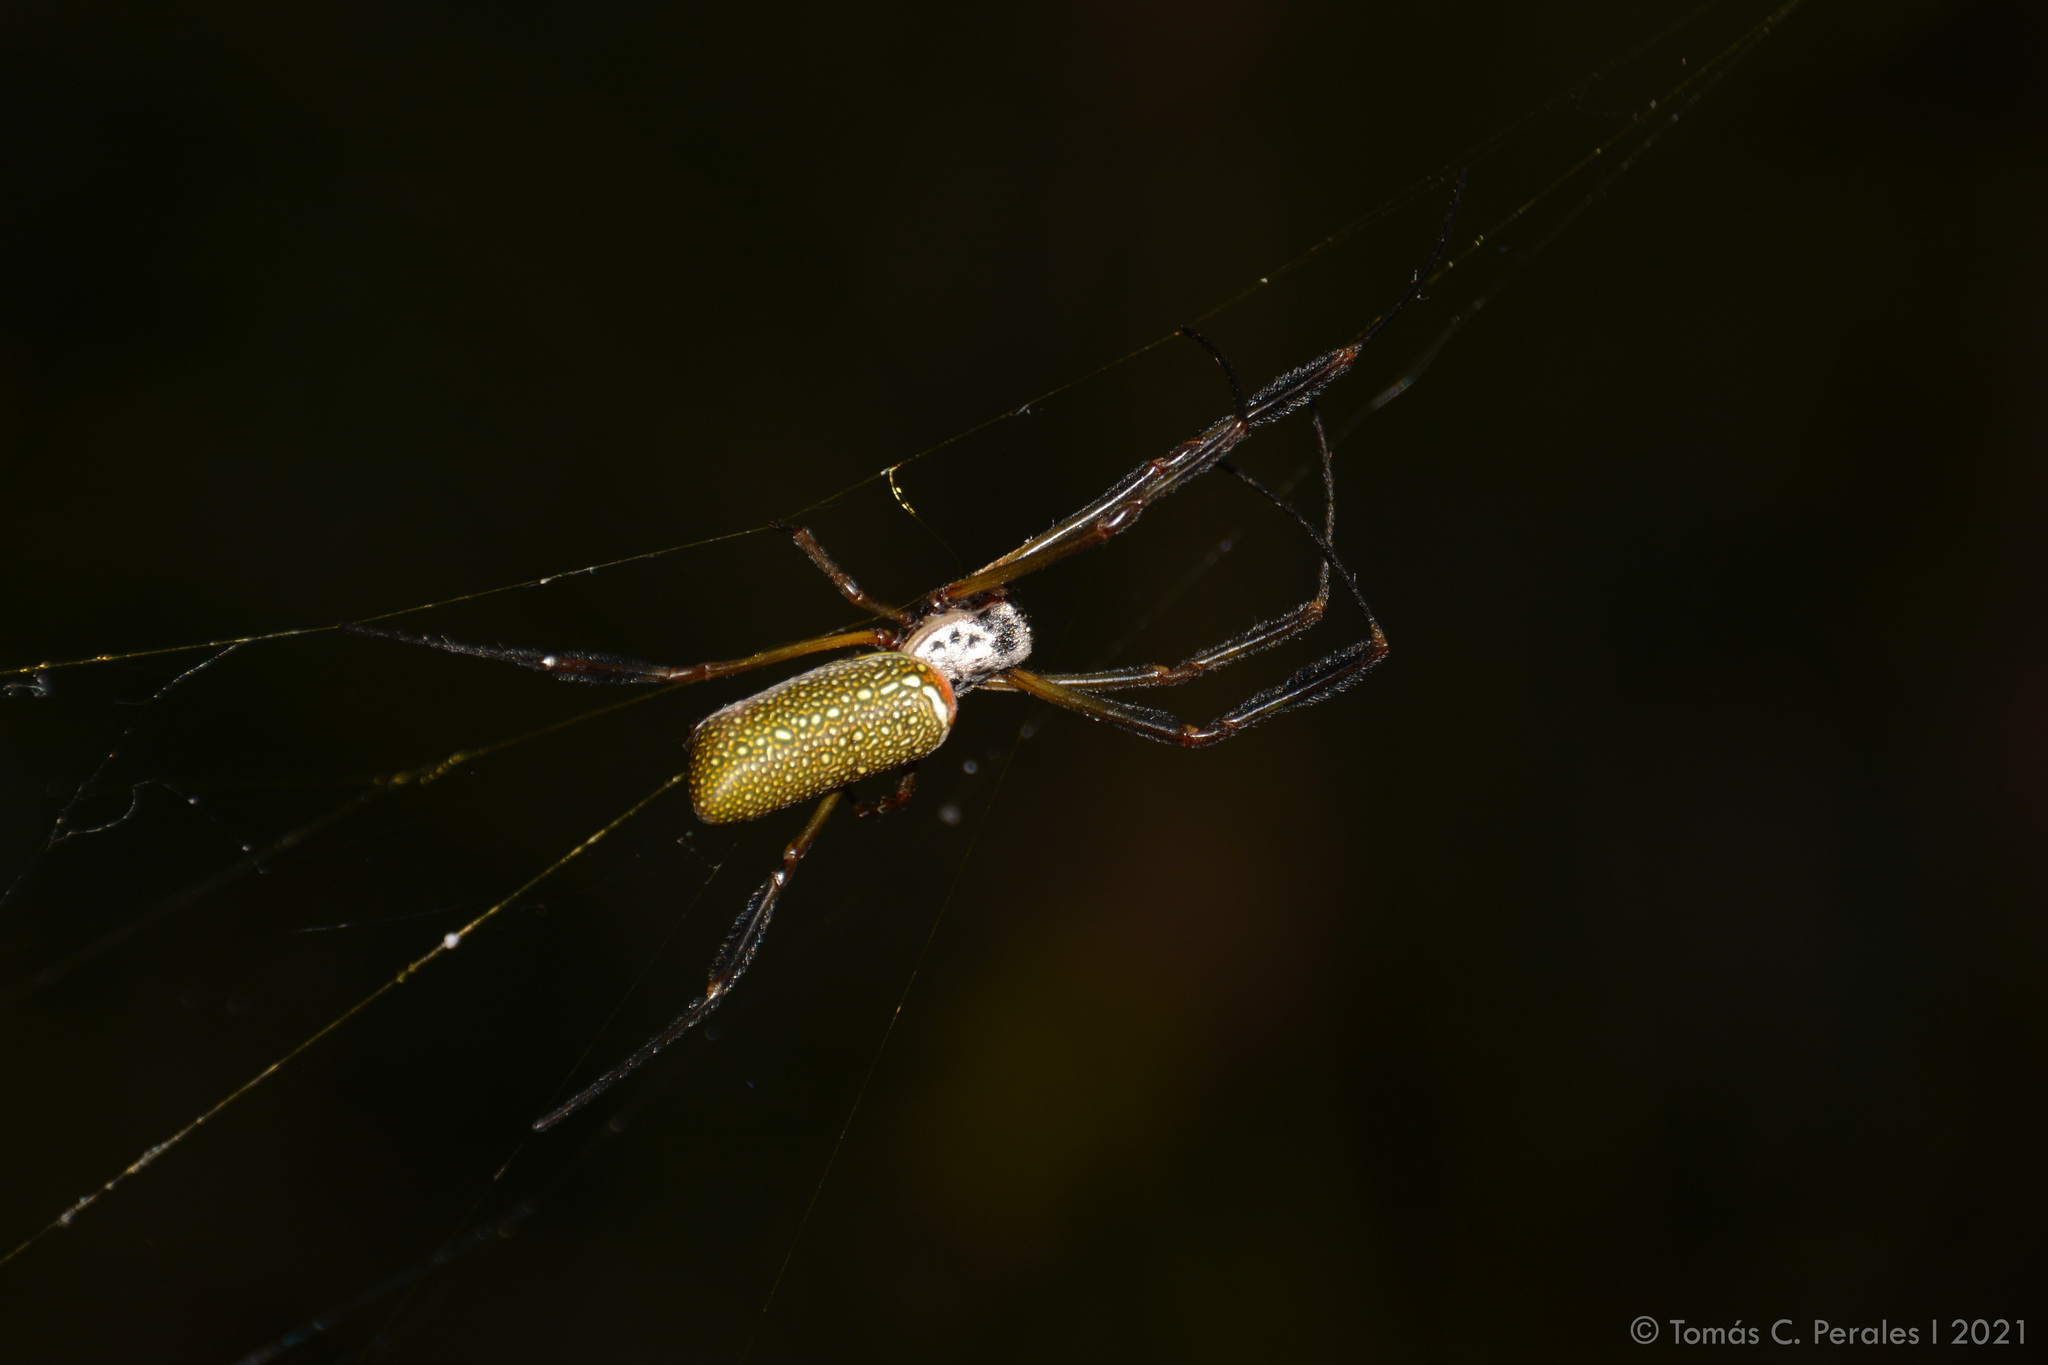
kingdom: Animalia
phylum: Arthropoda
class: Arachnida
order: Araneae
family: Araneidae
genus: Trichonephila
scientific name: Trichonephila clavipes
